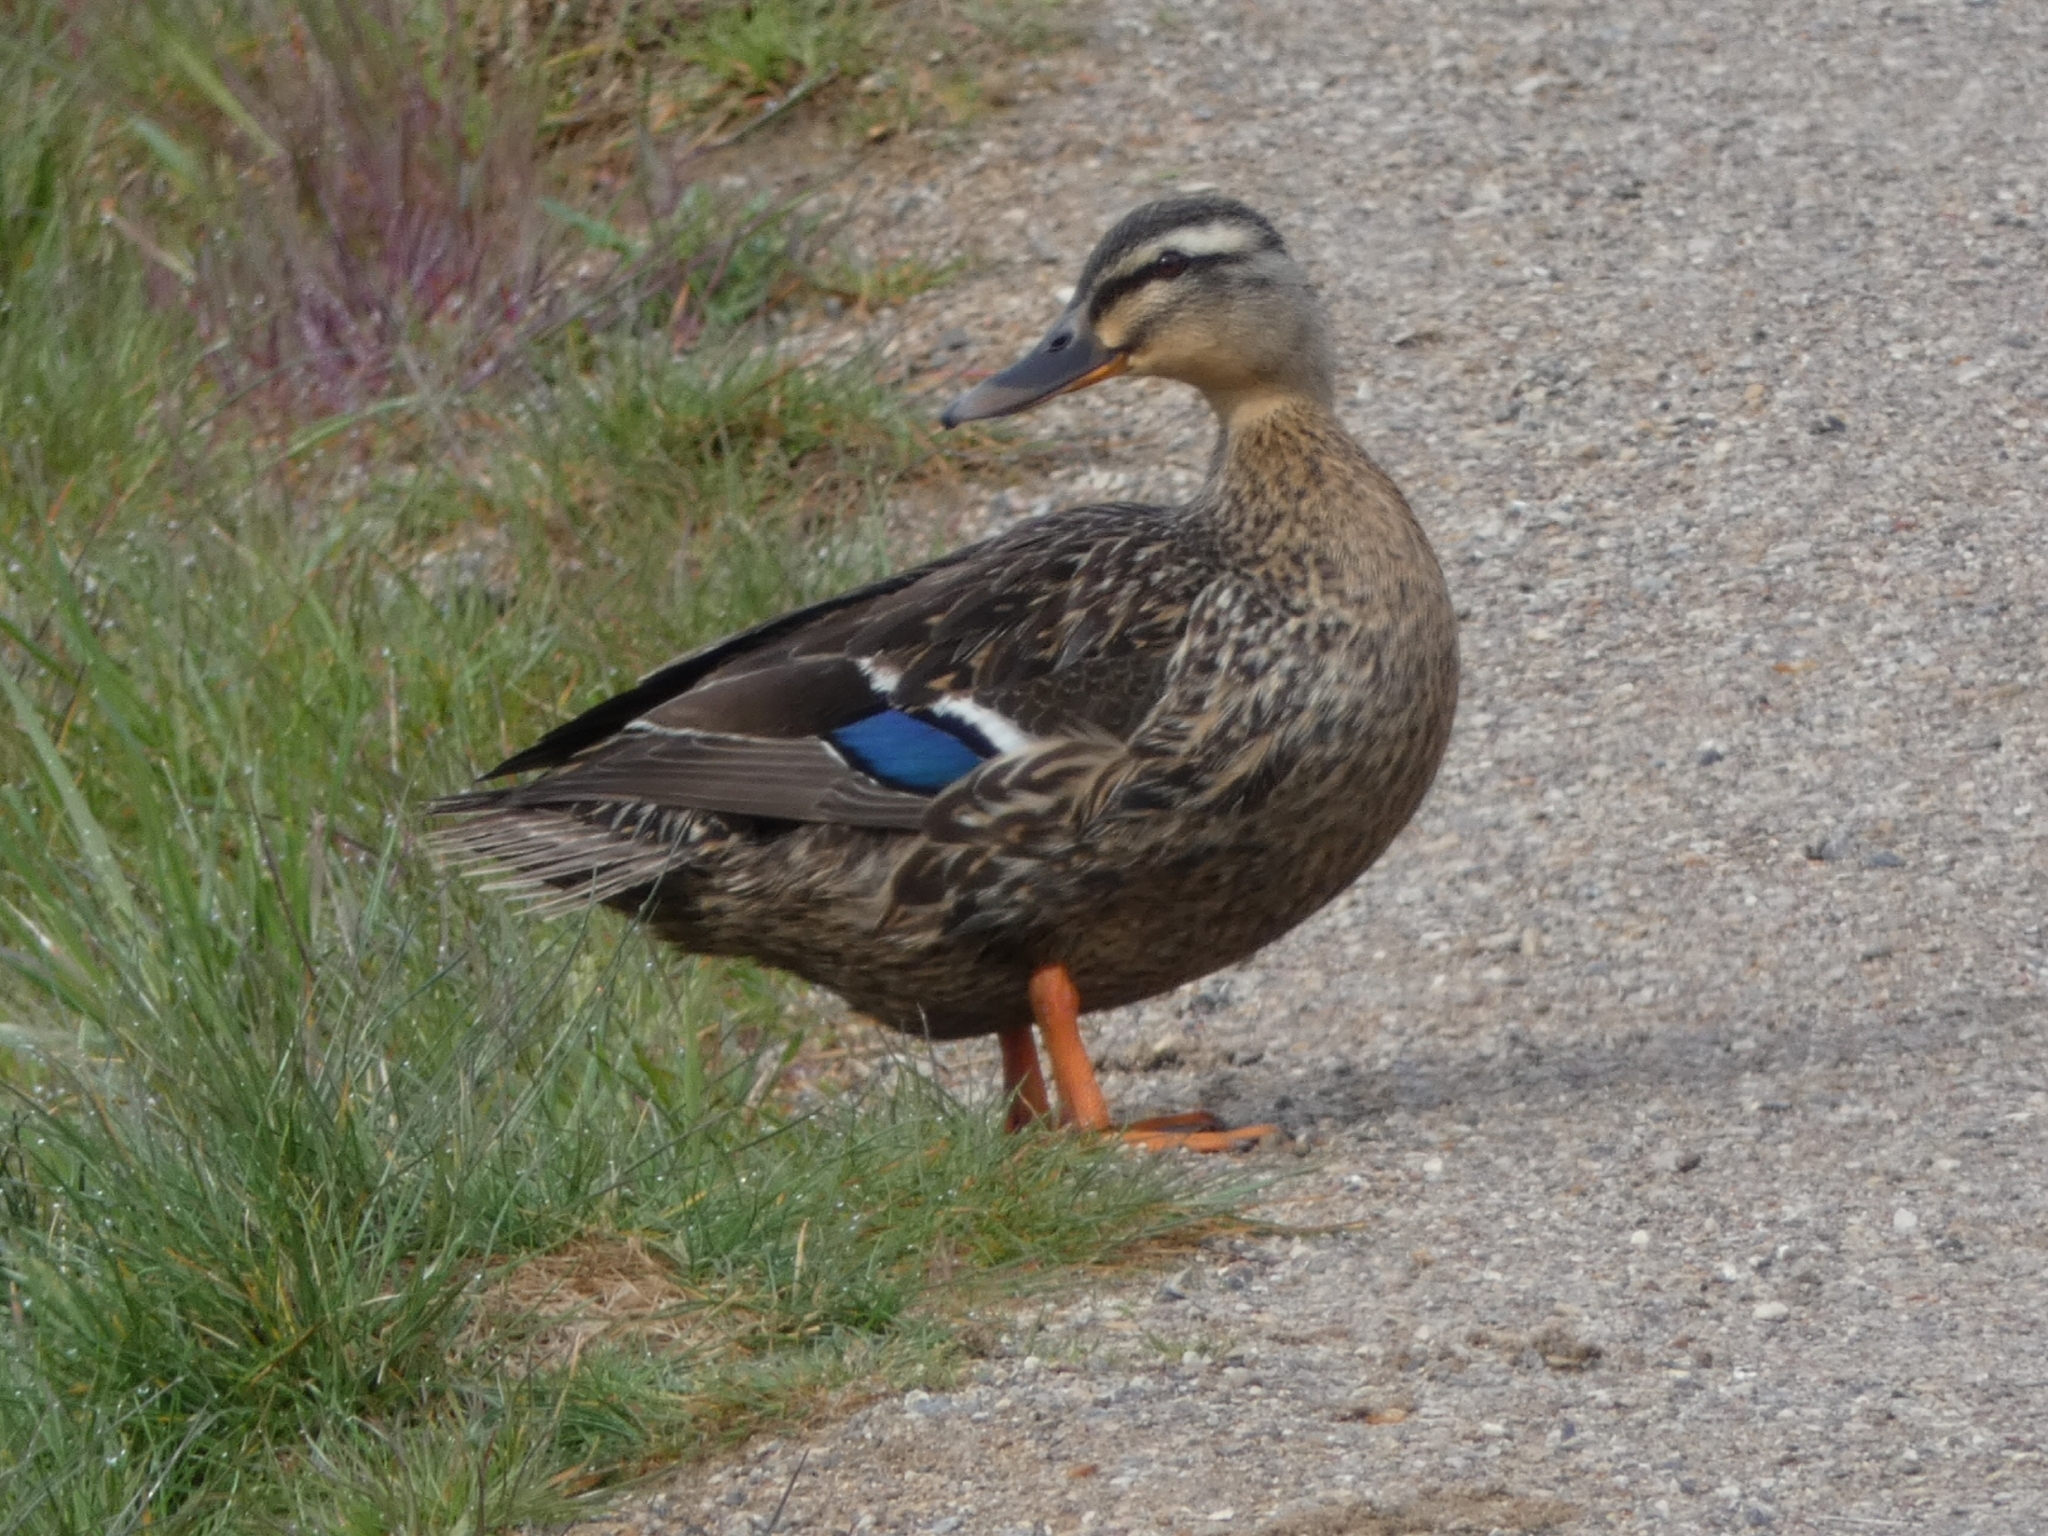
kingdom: Animalia
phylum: Chordata
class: Aves
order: Anseriformes
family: Anatidae
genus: Anas
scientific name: Anas platyrhynchos
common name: Mallard
